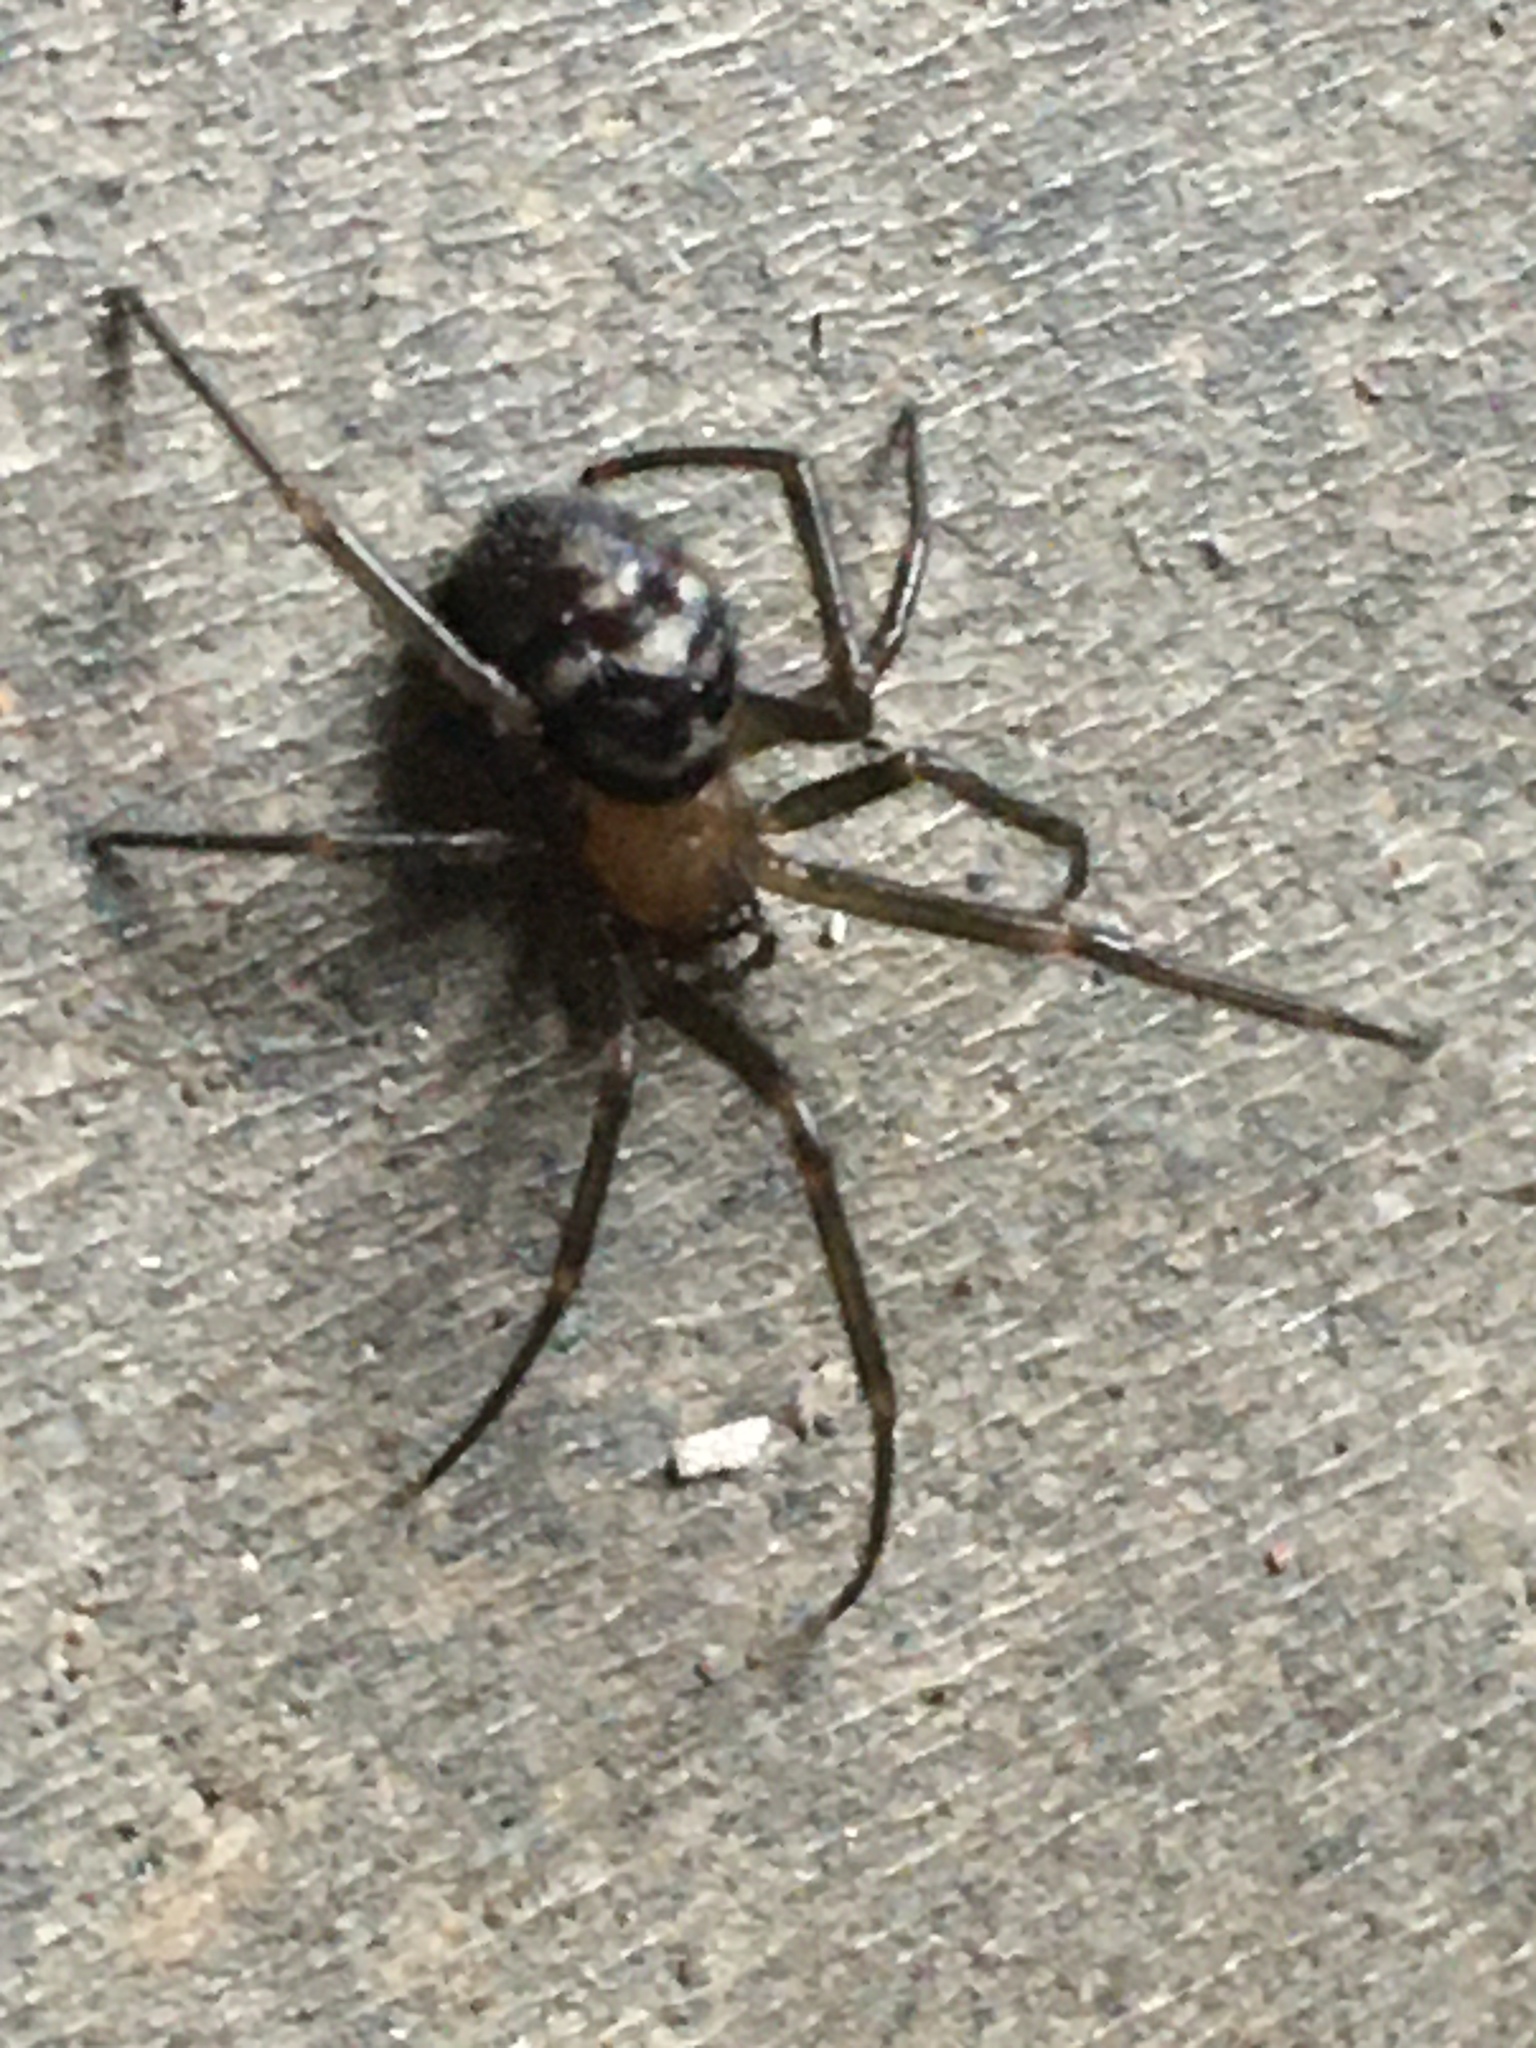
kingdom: Animalia
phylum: Arthropoda
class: Arachnida
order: Araneae
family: Theridiidae
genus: Steatoda
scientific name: Steatoda grossa
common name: False black widow
